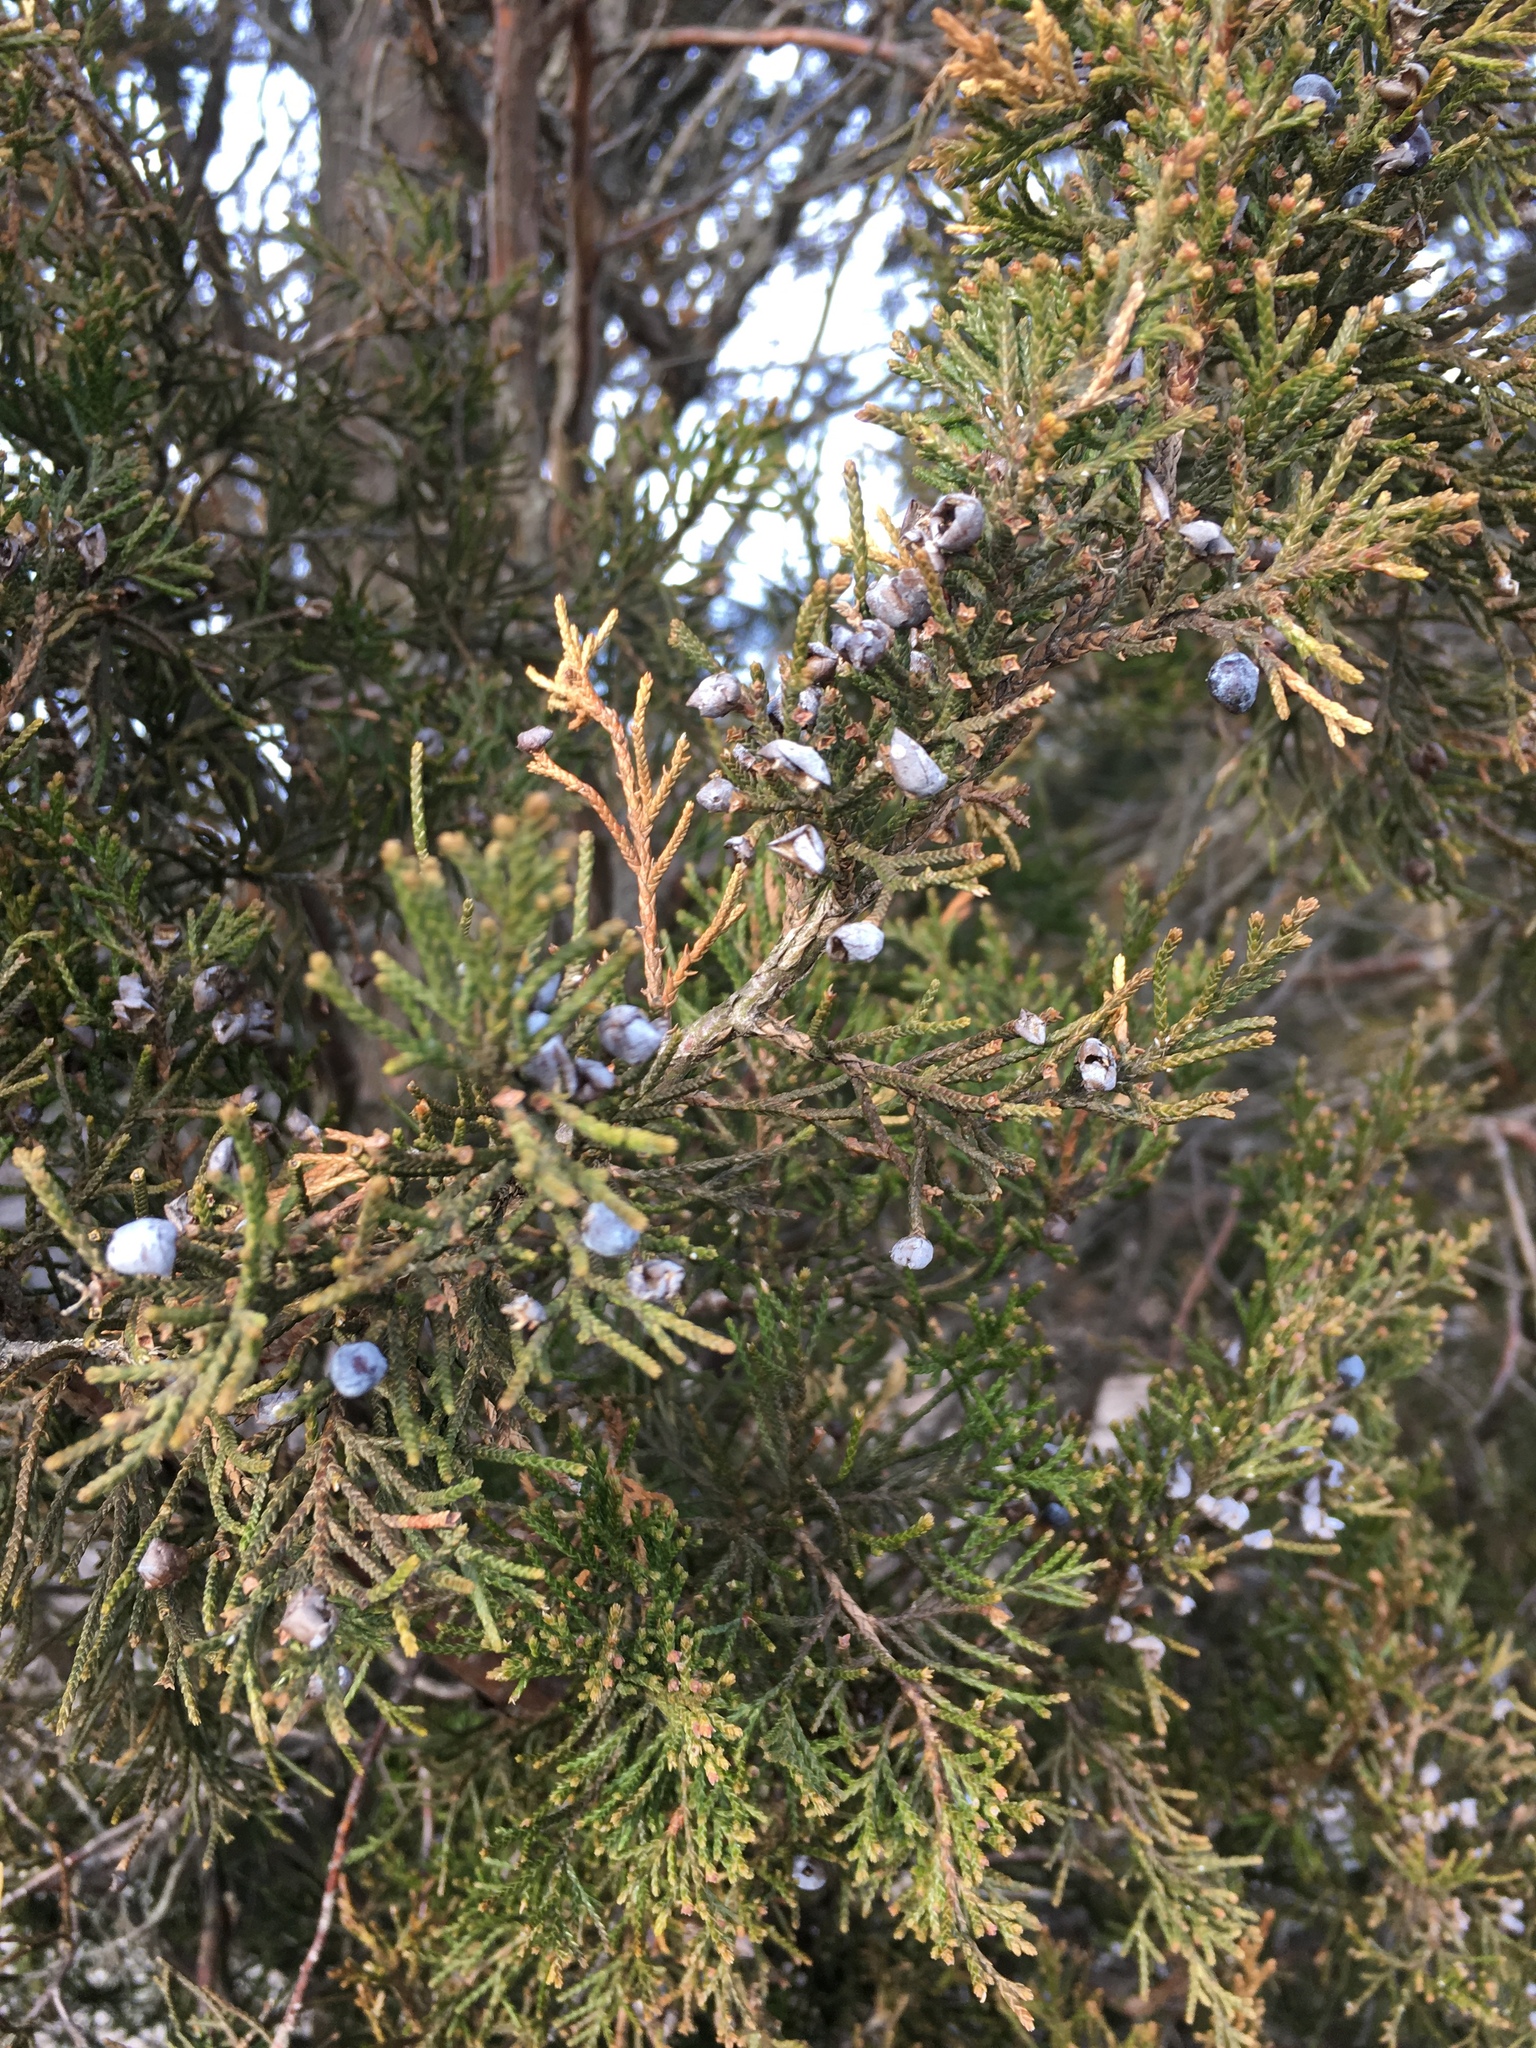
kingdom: Plantae
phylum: Tracheophyta
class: Pinopsida
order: Pinales
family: Cupressaceae
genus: Juniperus
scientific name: Juniperus virginiana
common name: Red juniper
